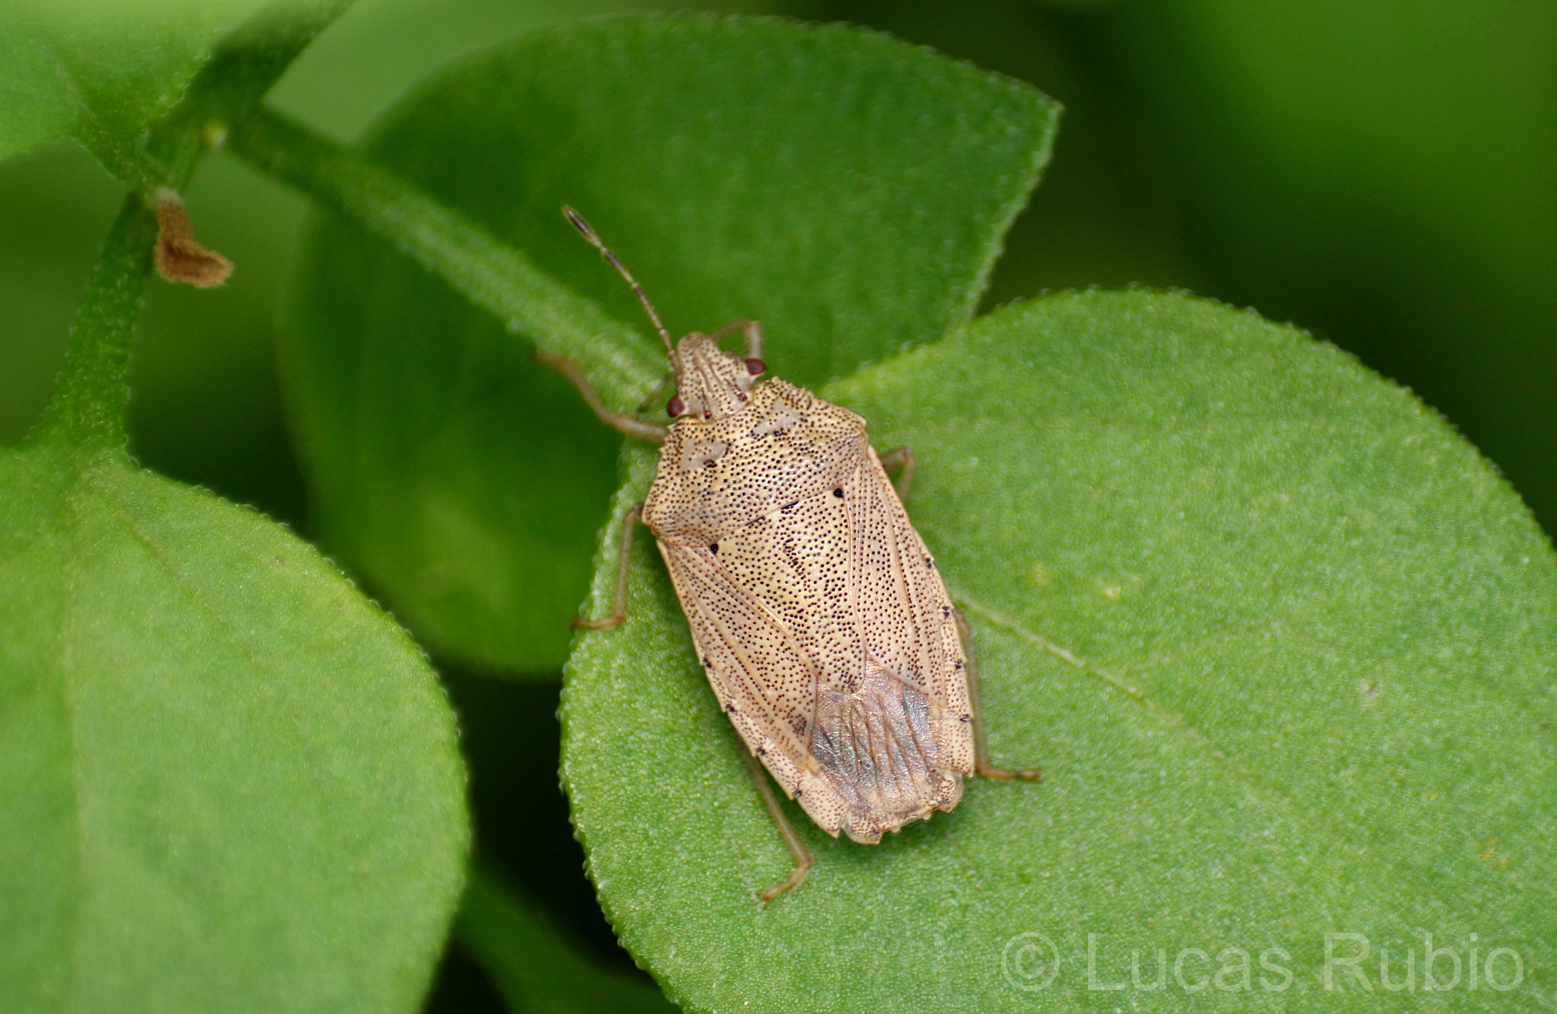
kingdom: Animalia
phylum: Arthropoda
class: Insecta
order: Hemiptera
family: Pentatomidae
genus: Hypatropis
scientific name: Hypatropis sternalis
